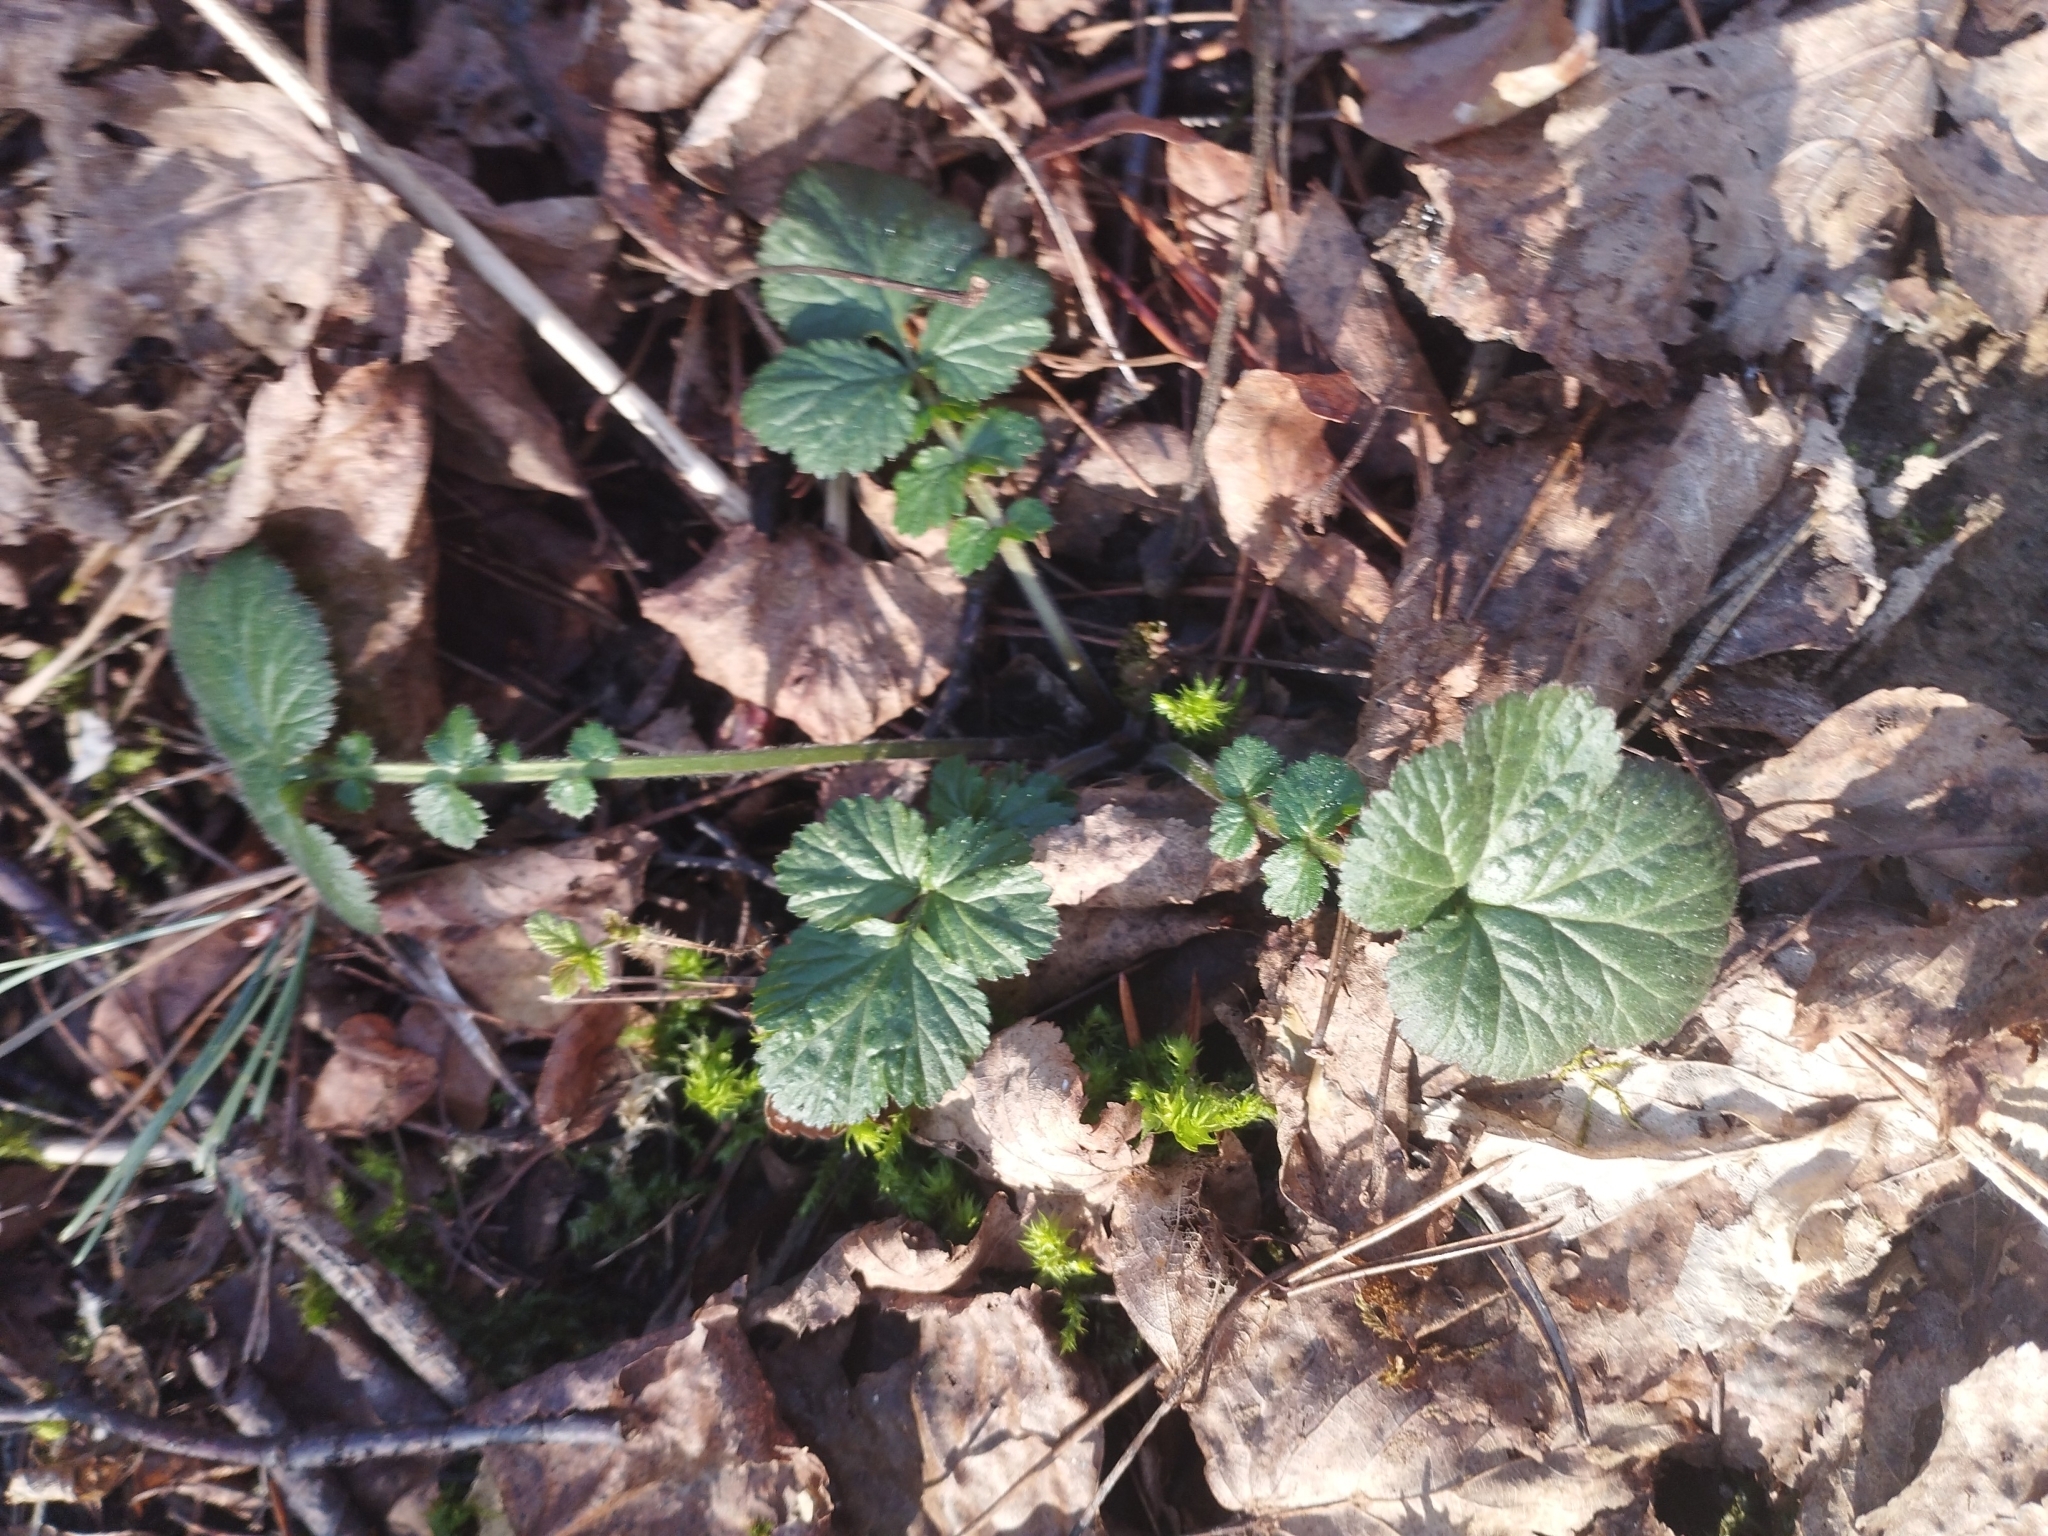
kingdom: Plantae
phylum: Tracheophyta
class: Magnoliopsida
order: Rosales
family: Rosaceae
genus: Geum
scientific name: Geum urbanum
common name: Wood avens
